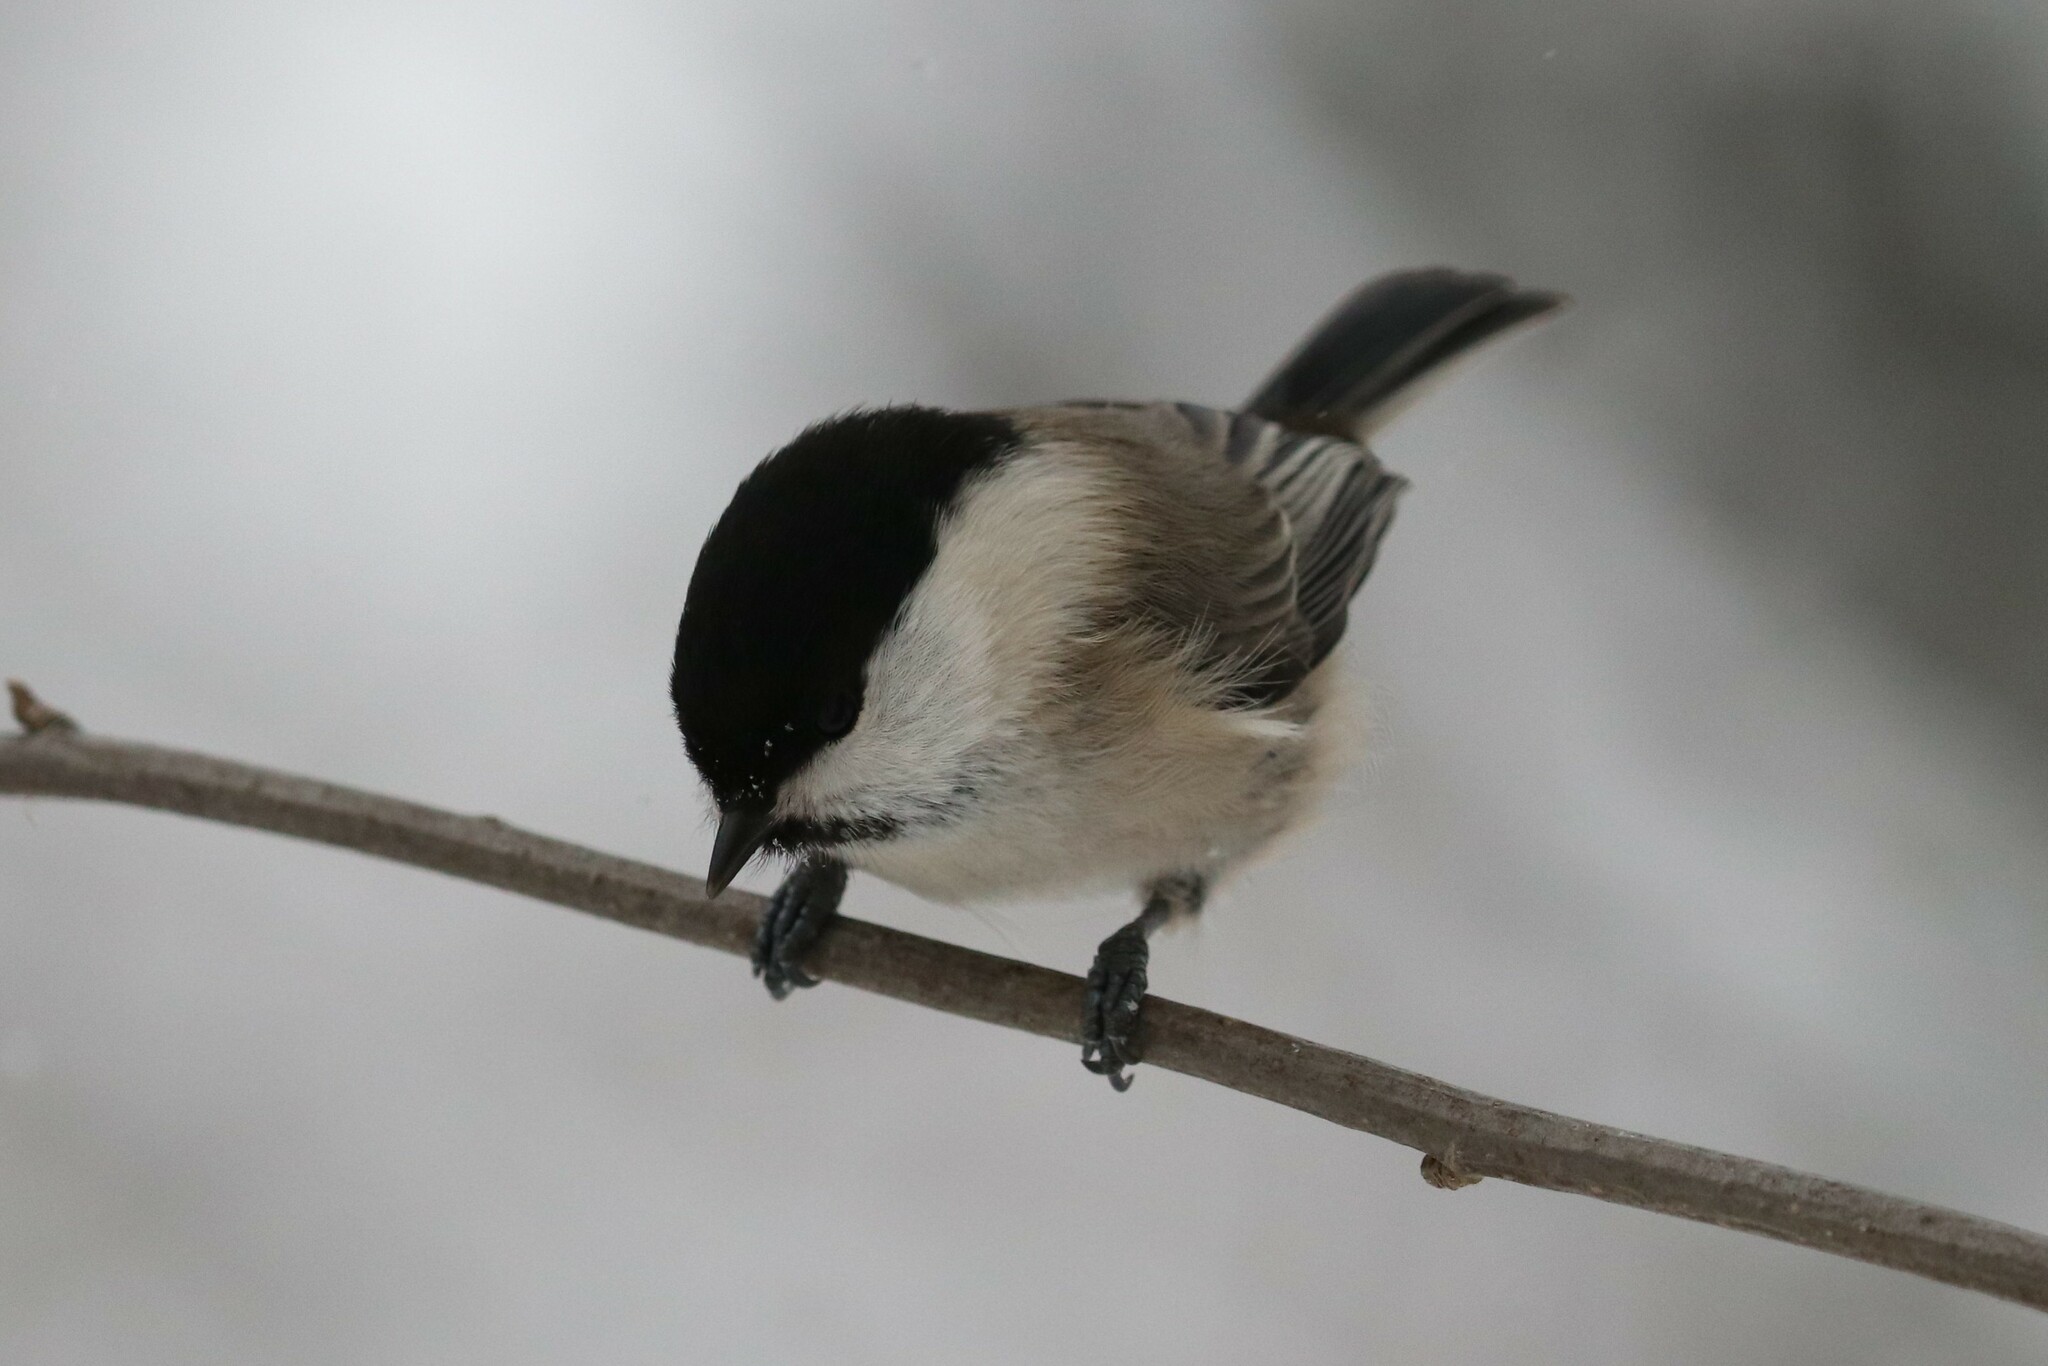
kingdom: Animalia
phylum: Chordata
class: Aves
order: Passeriformes
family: Paridae
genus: Poecile
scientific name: Poecile montanus
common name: Willow tit
